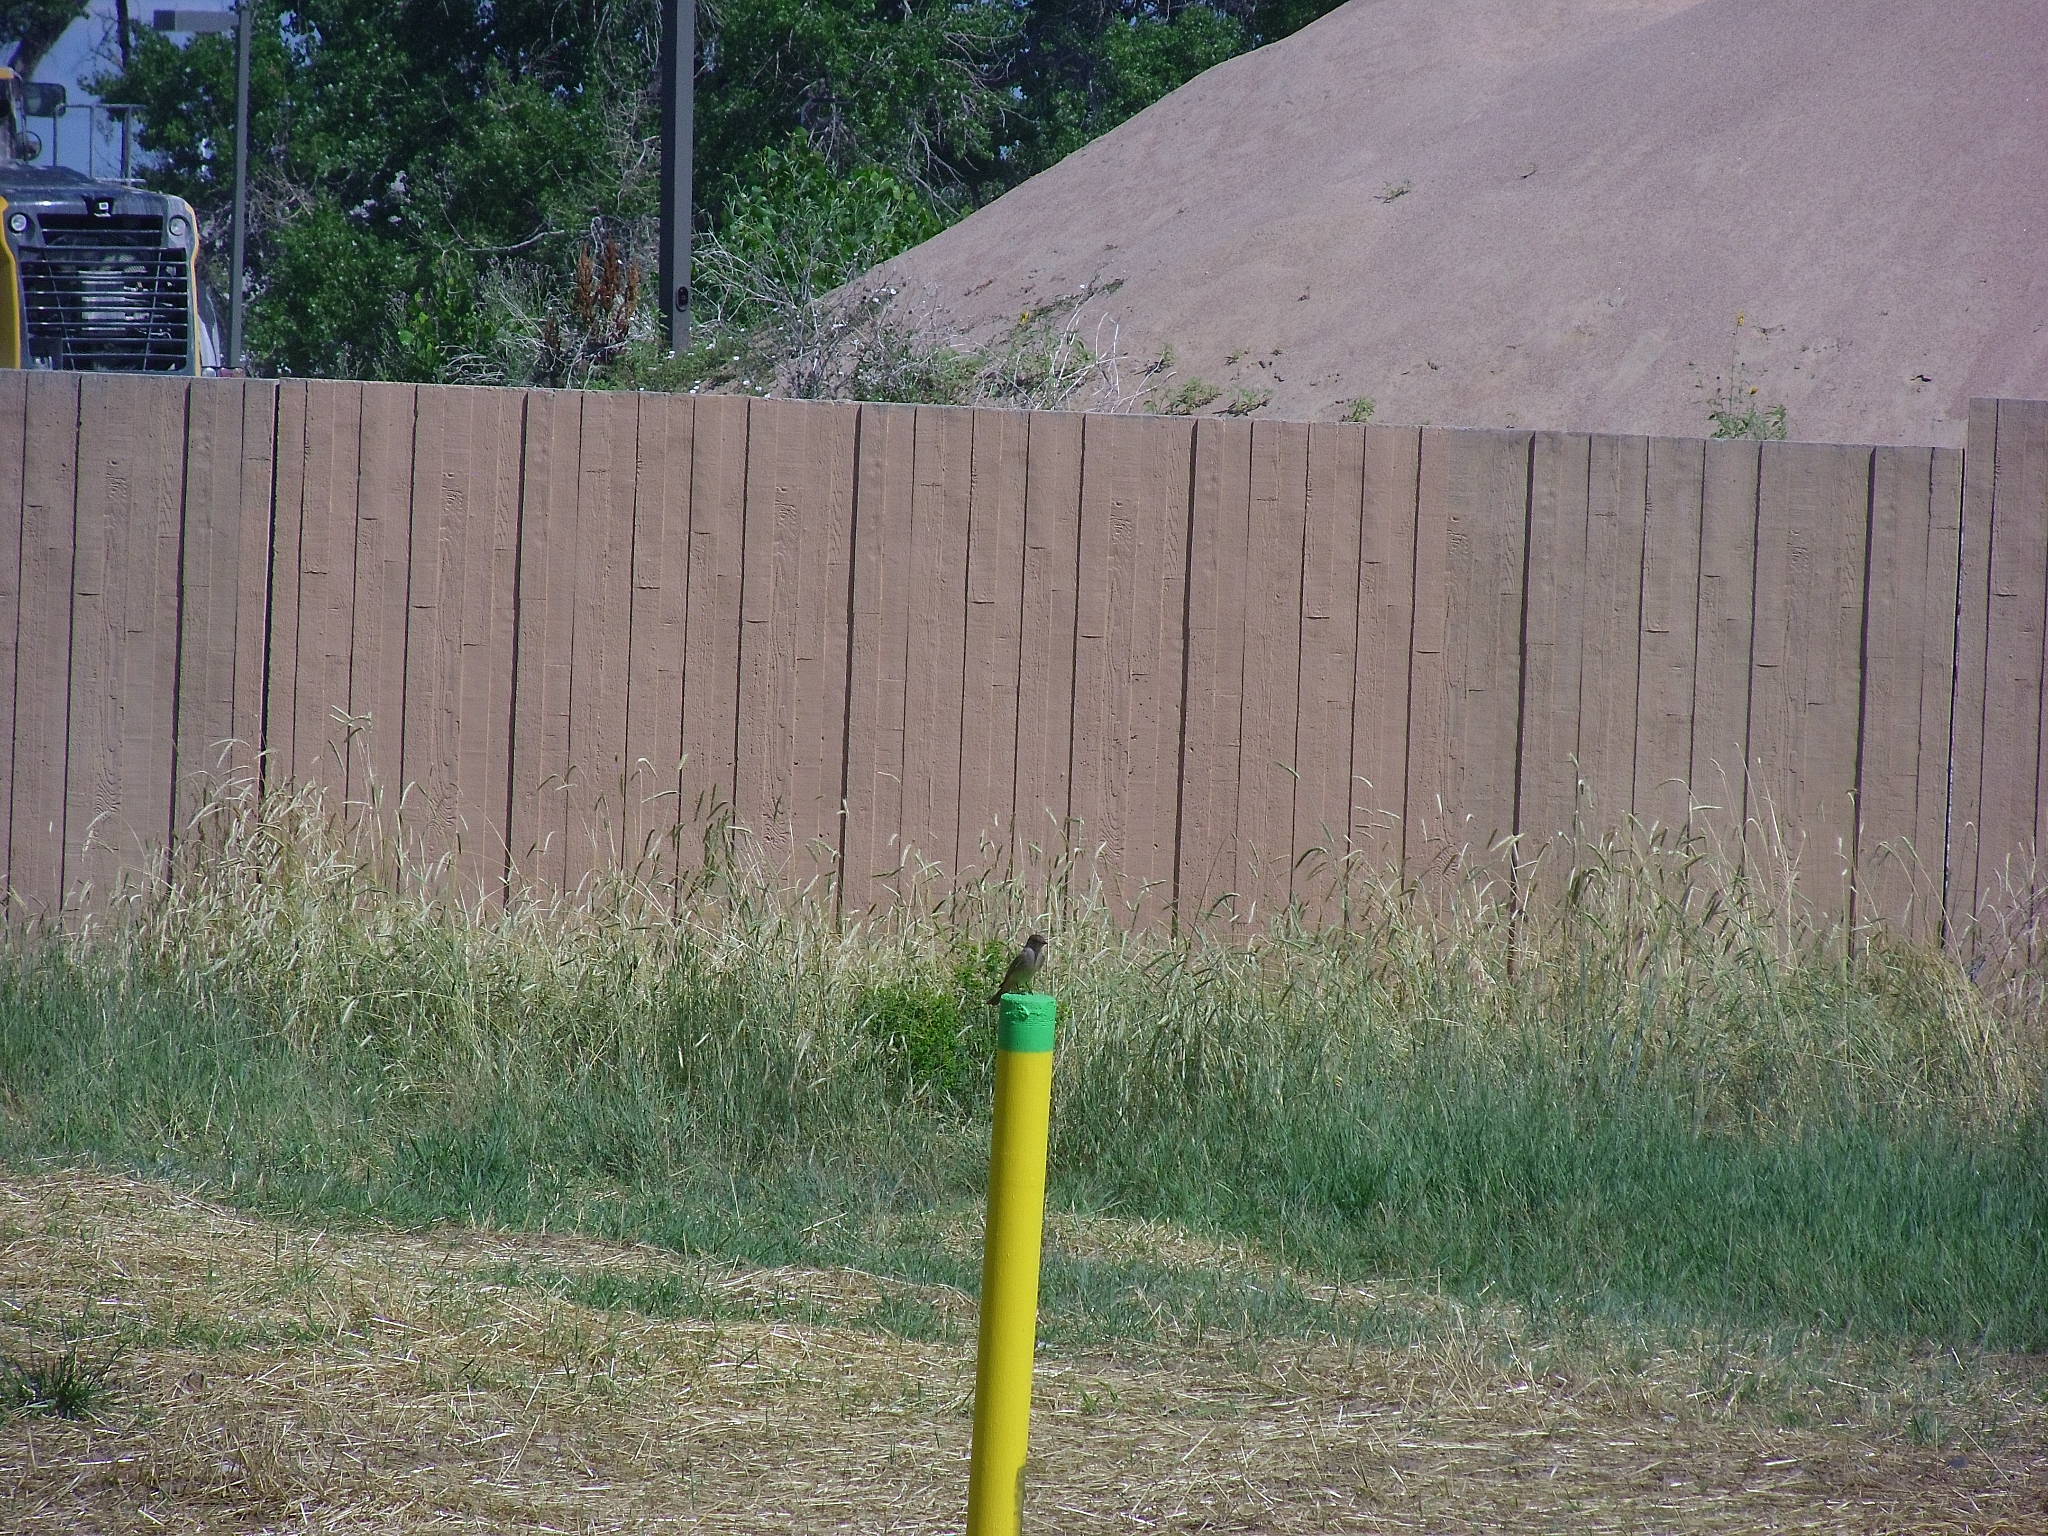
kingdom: Animalia
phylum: Chordata
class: Aves
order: Passeriformes
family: Tyrannidae
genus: Sayornis
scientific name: Sayornis saya
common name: Say's phoebe
